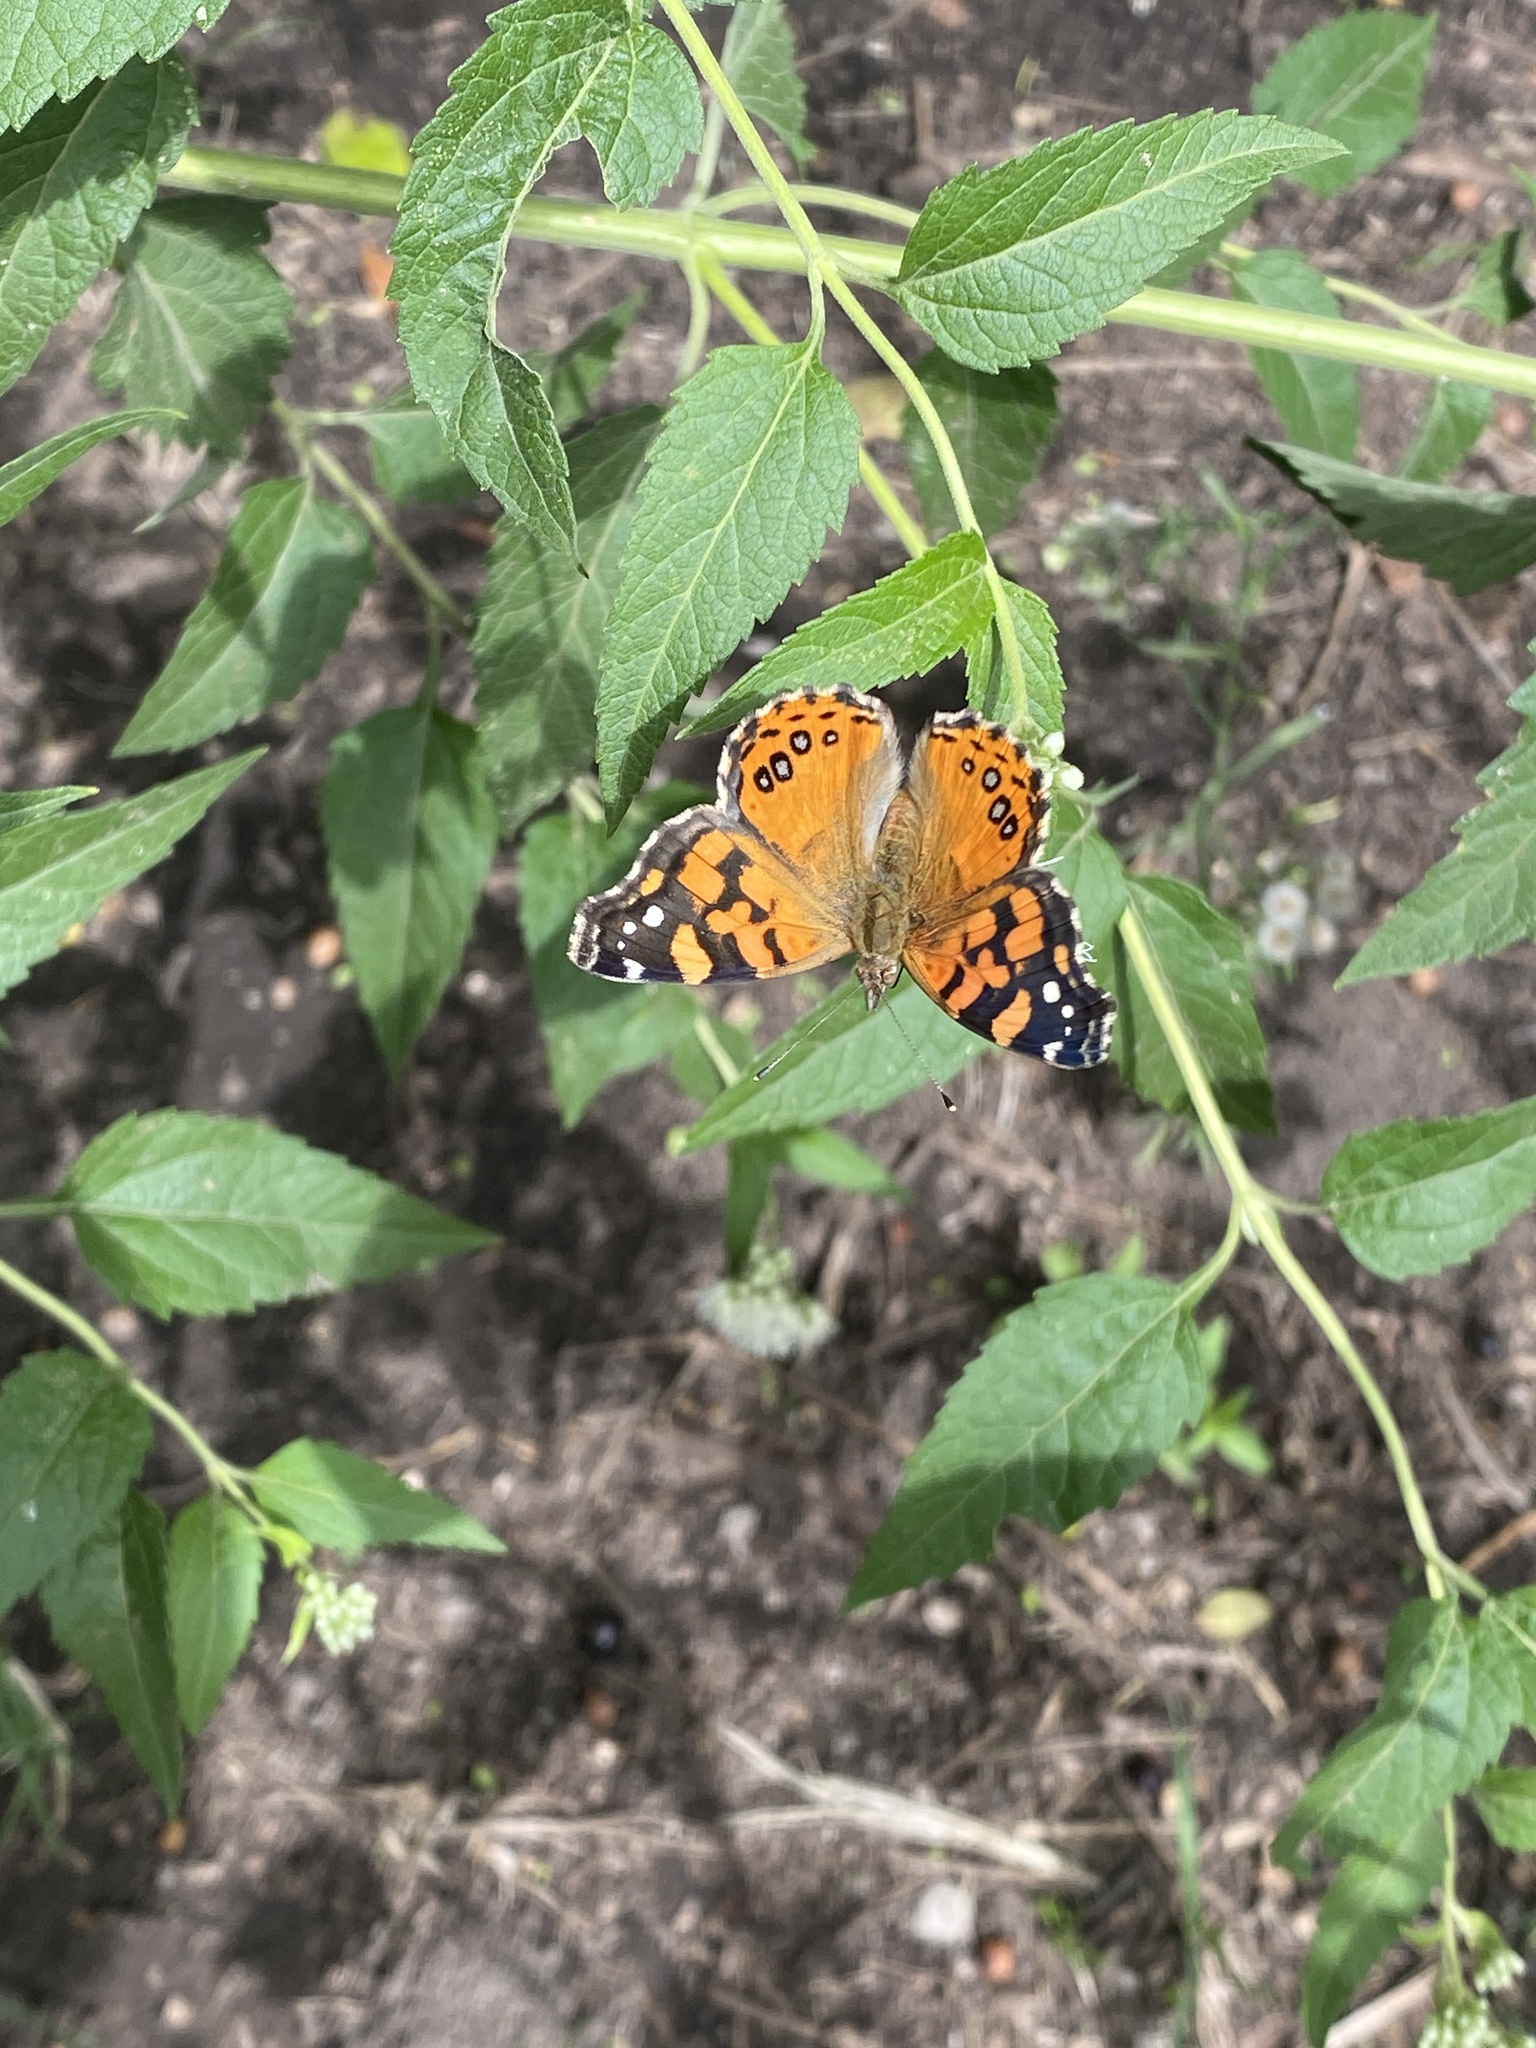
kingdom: Animalia
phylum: Arthropoda
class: Insecta
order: Lepidoptera
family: Nymphalidae
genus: Vanessa
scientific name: Vanessa carye
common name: Subtropical lady
